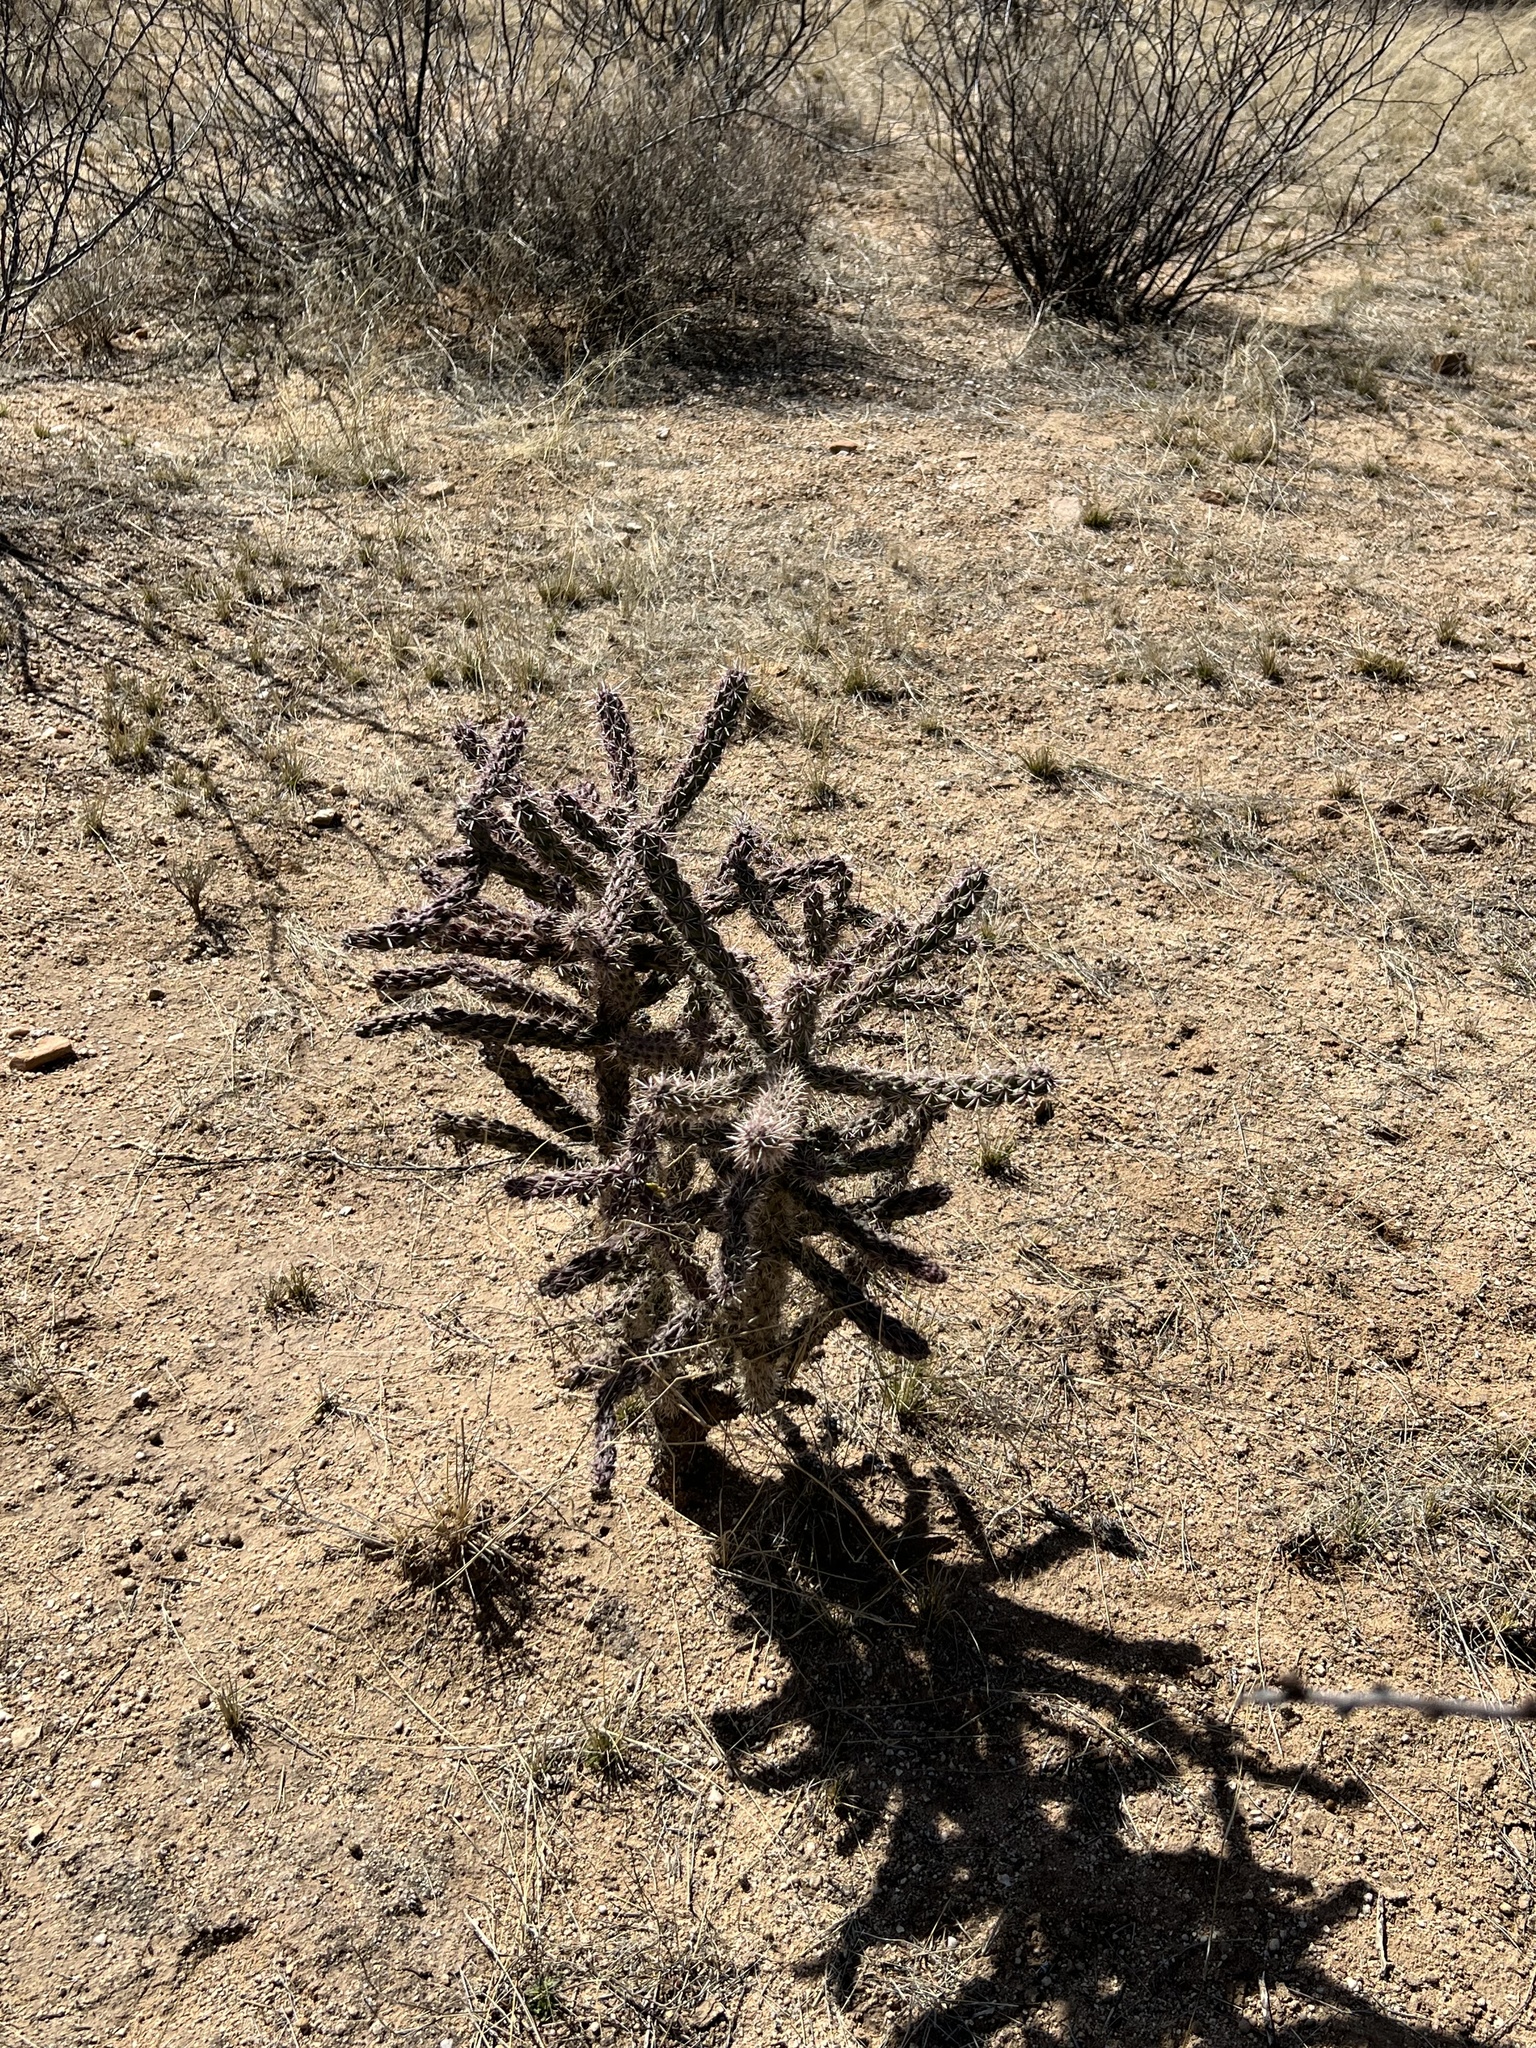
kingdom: Plantae
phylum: Tracheophyta
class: Magnoliopsida
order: Caryophyllales
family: Cactaceae
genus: Cylindropuntia
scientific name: Cylindropuntia imbricata
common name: Candelabrum cactus
